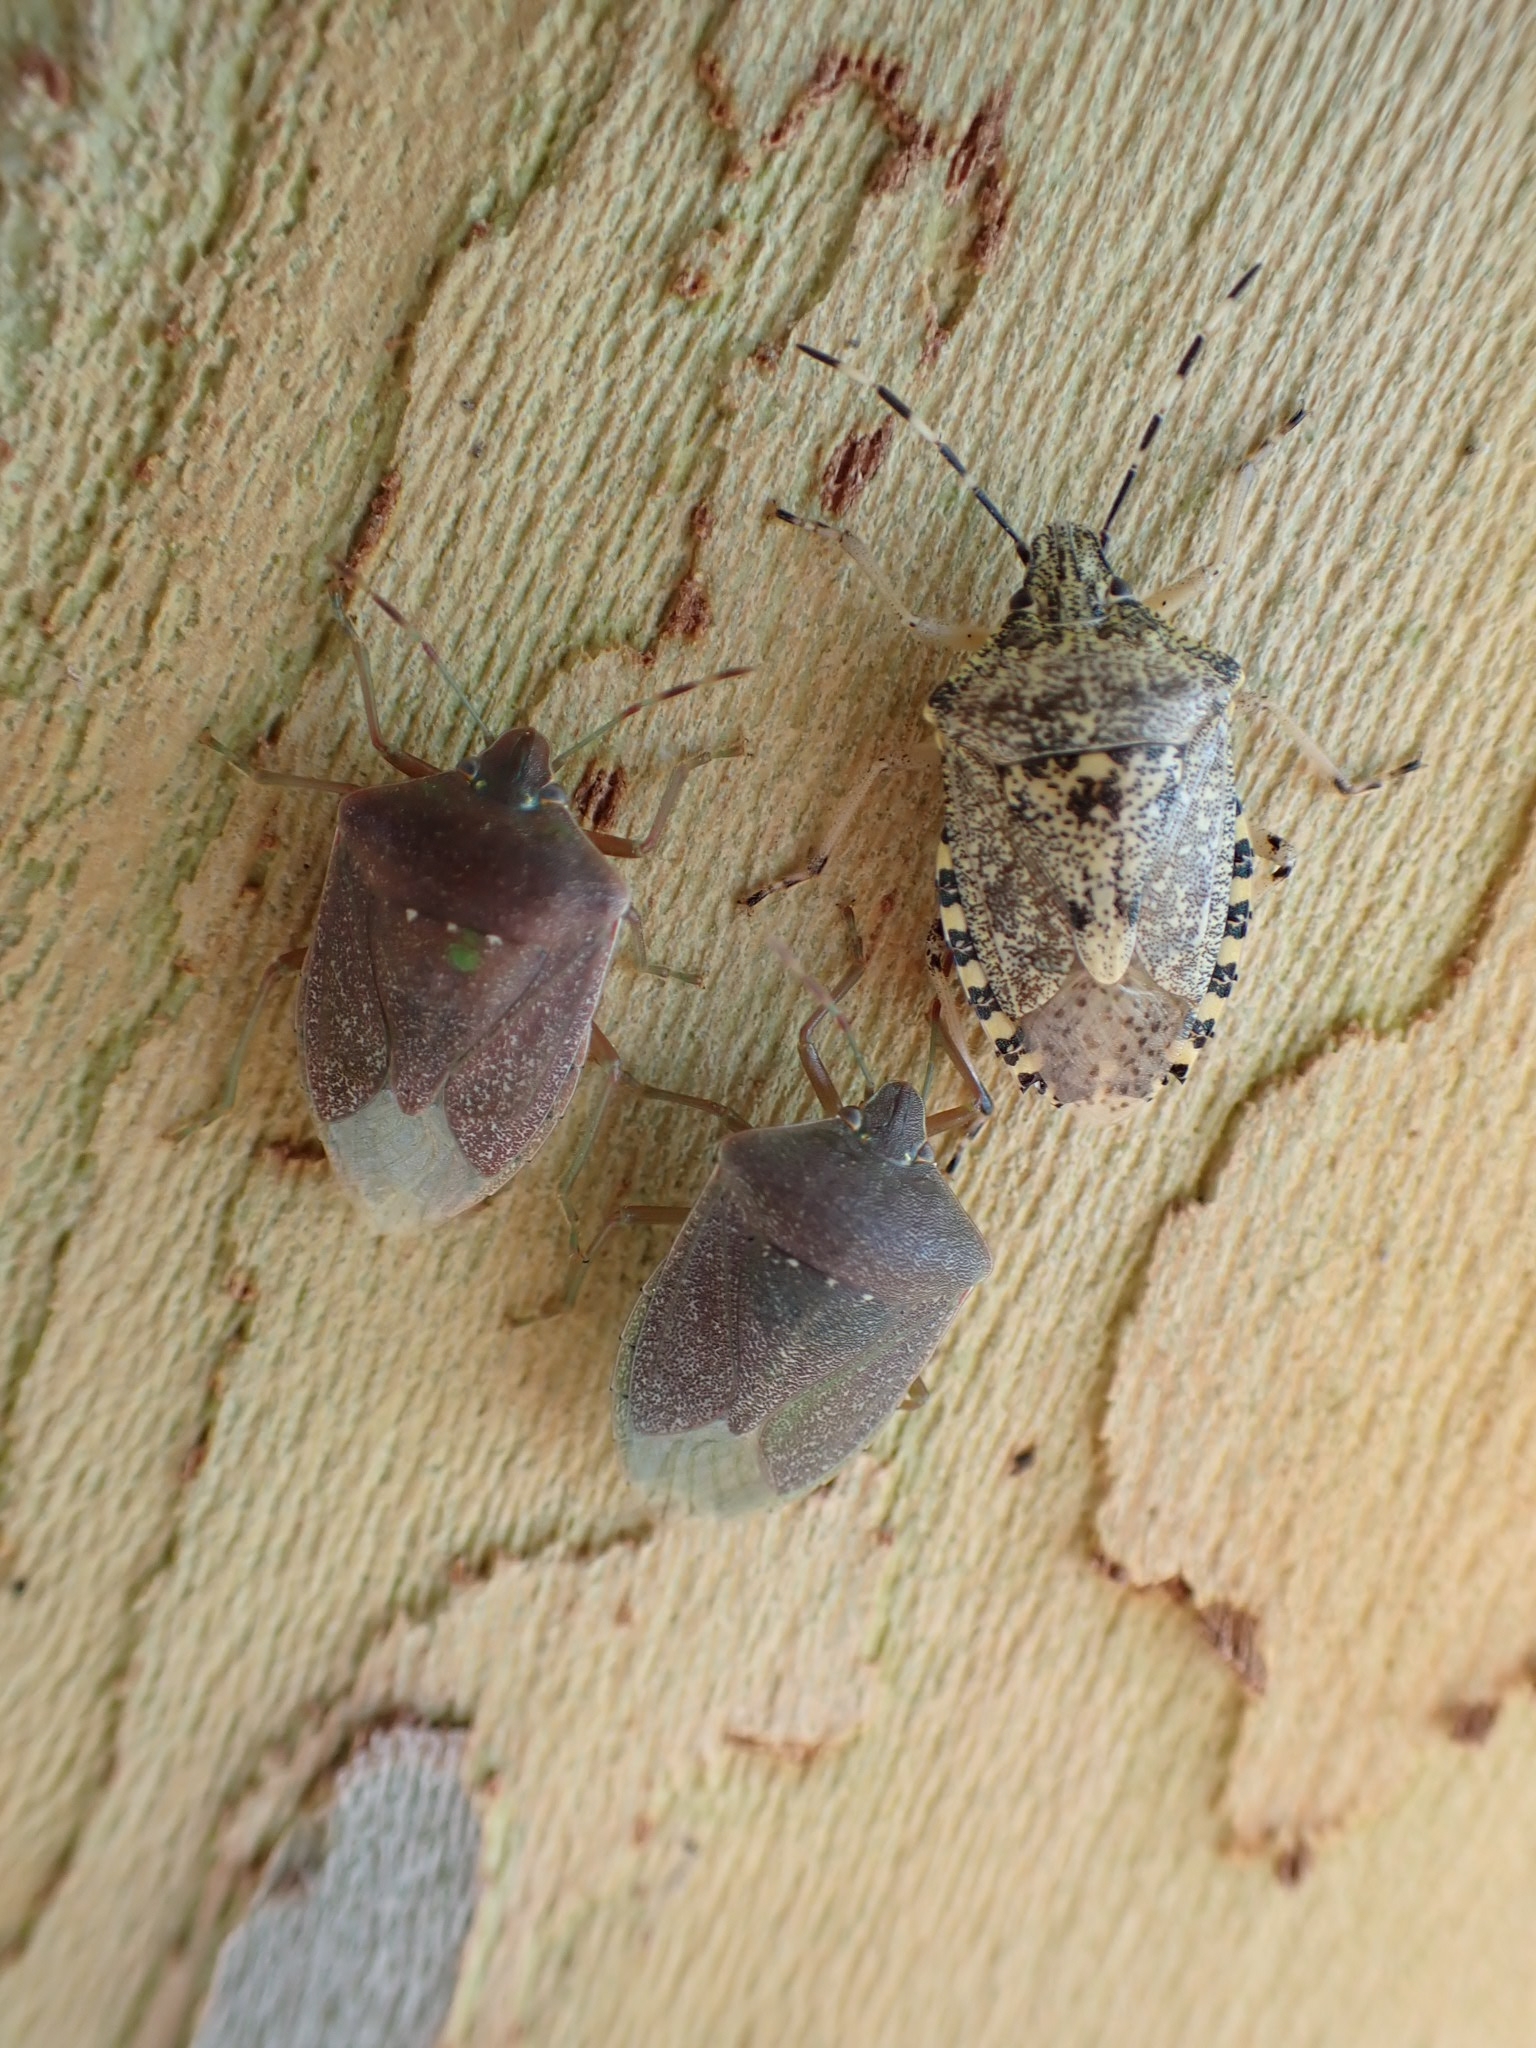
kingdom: Animalia
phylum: Arthropoda
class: Insecta
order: Hemiptera
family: Pentatomidae
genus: Rhaphigaster
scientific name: Rhaphigaster nebulosa
